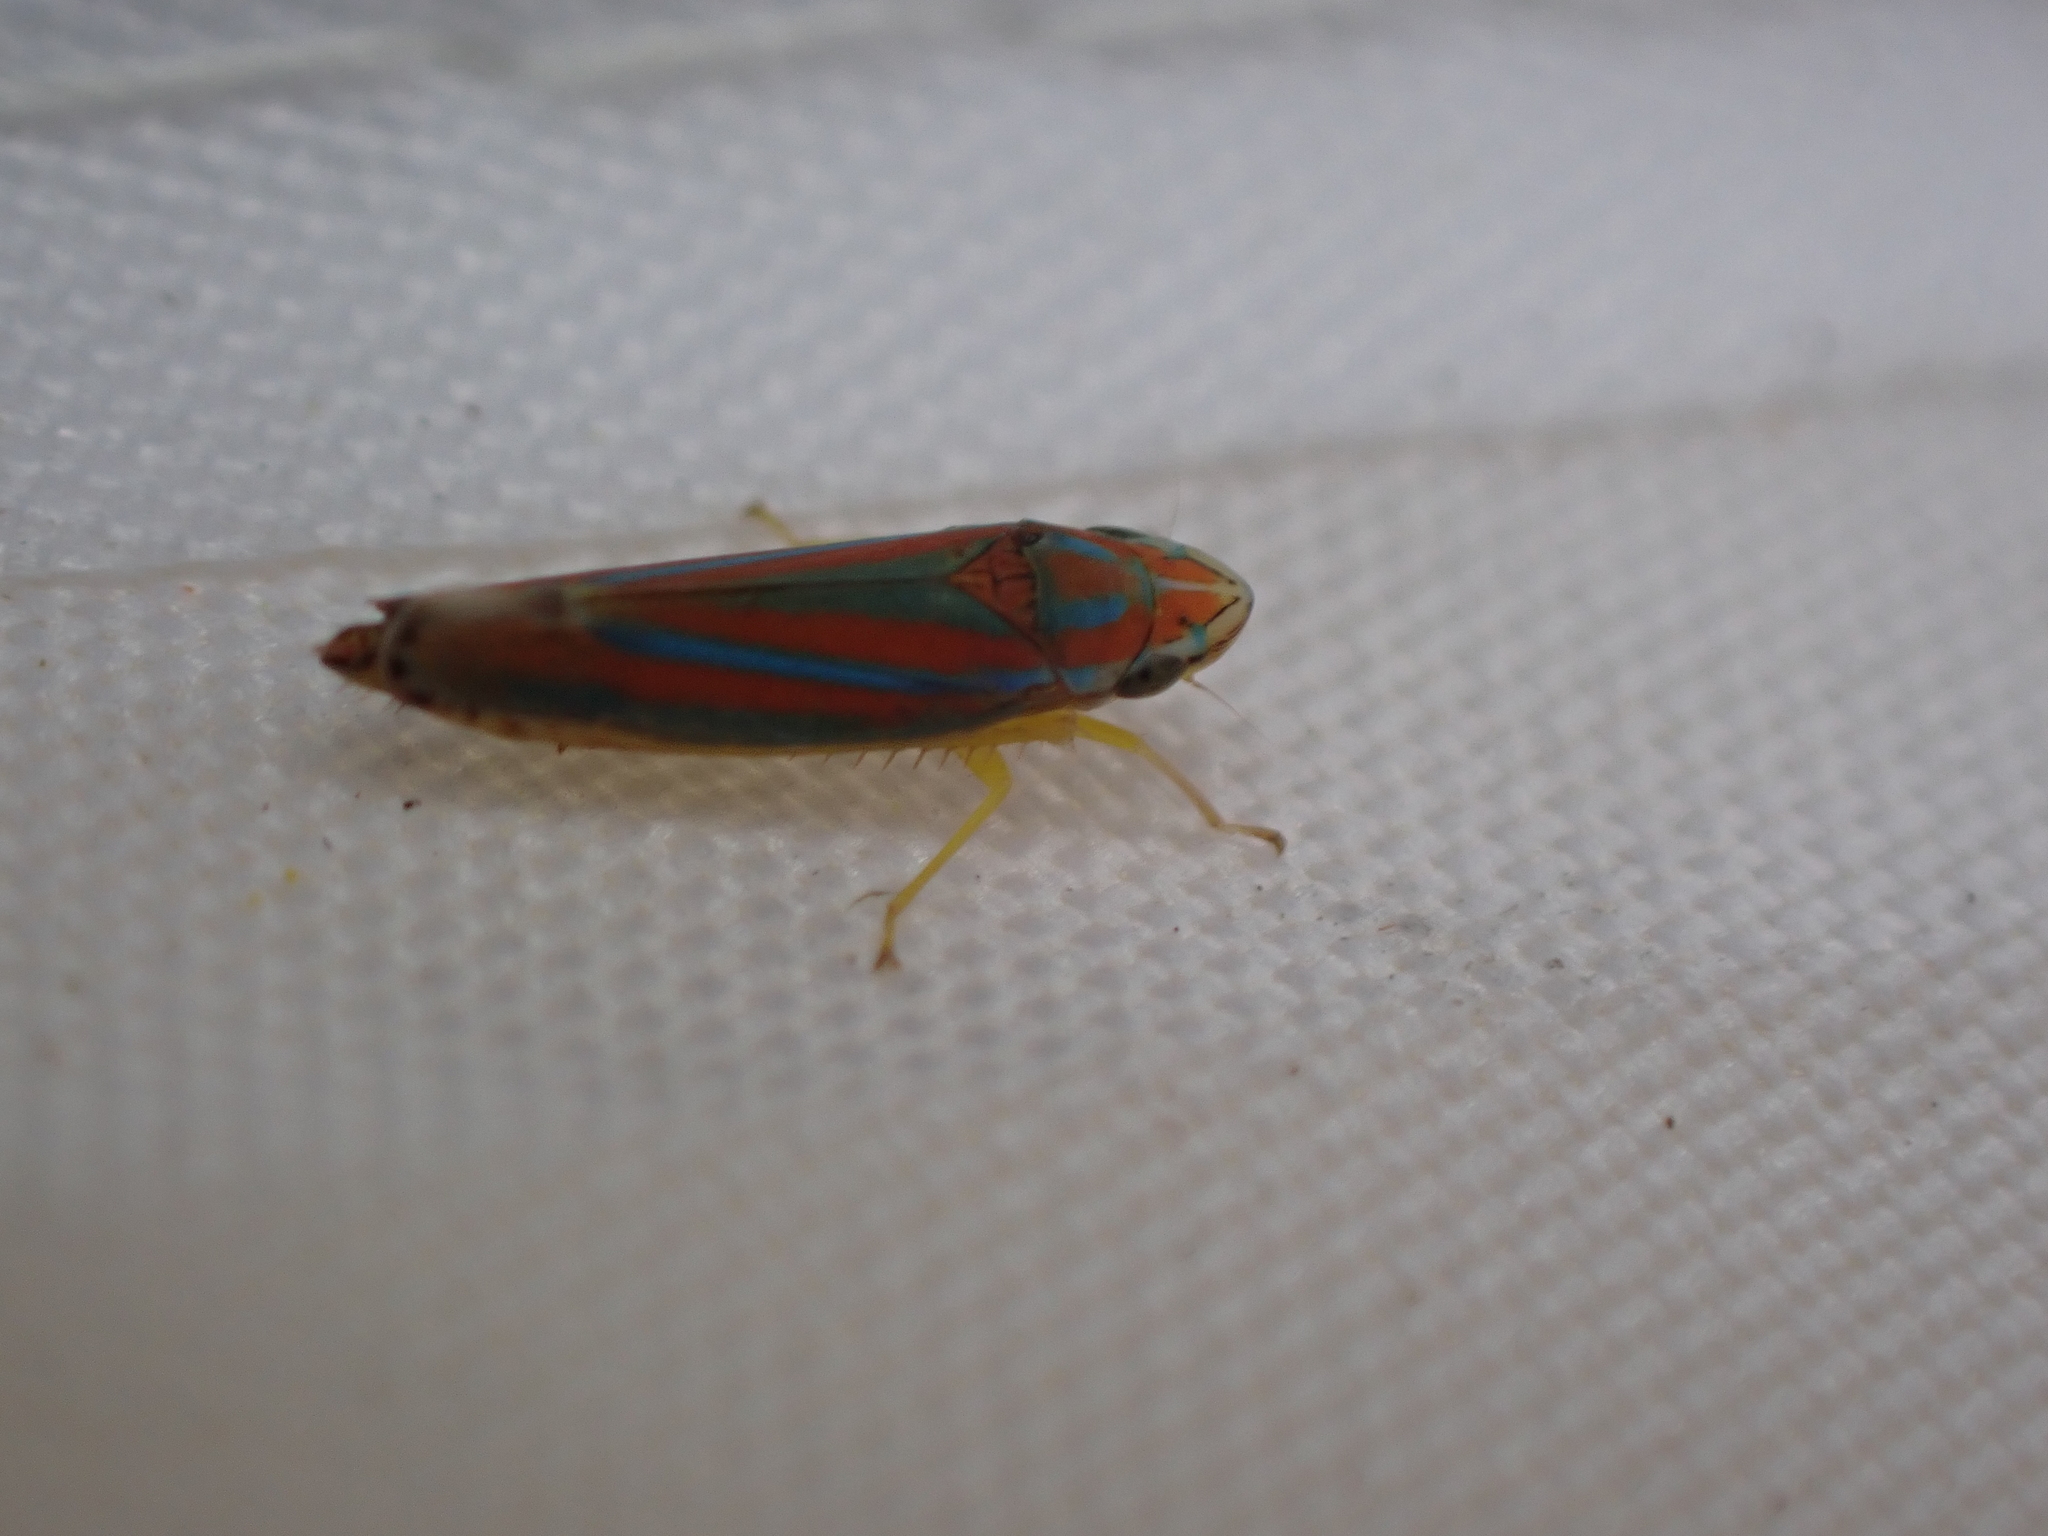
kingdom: Animalia
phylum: Arthropoda
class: Insecta
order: Hemiptera
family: Cicadellidae
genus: Graphocephala
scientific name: Graphocephala versuta
